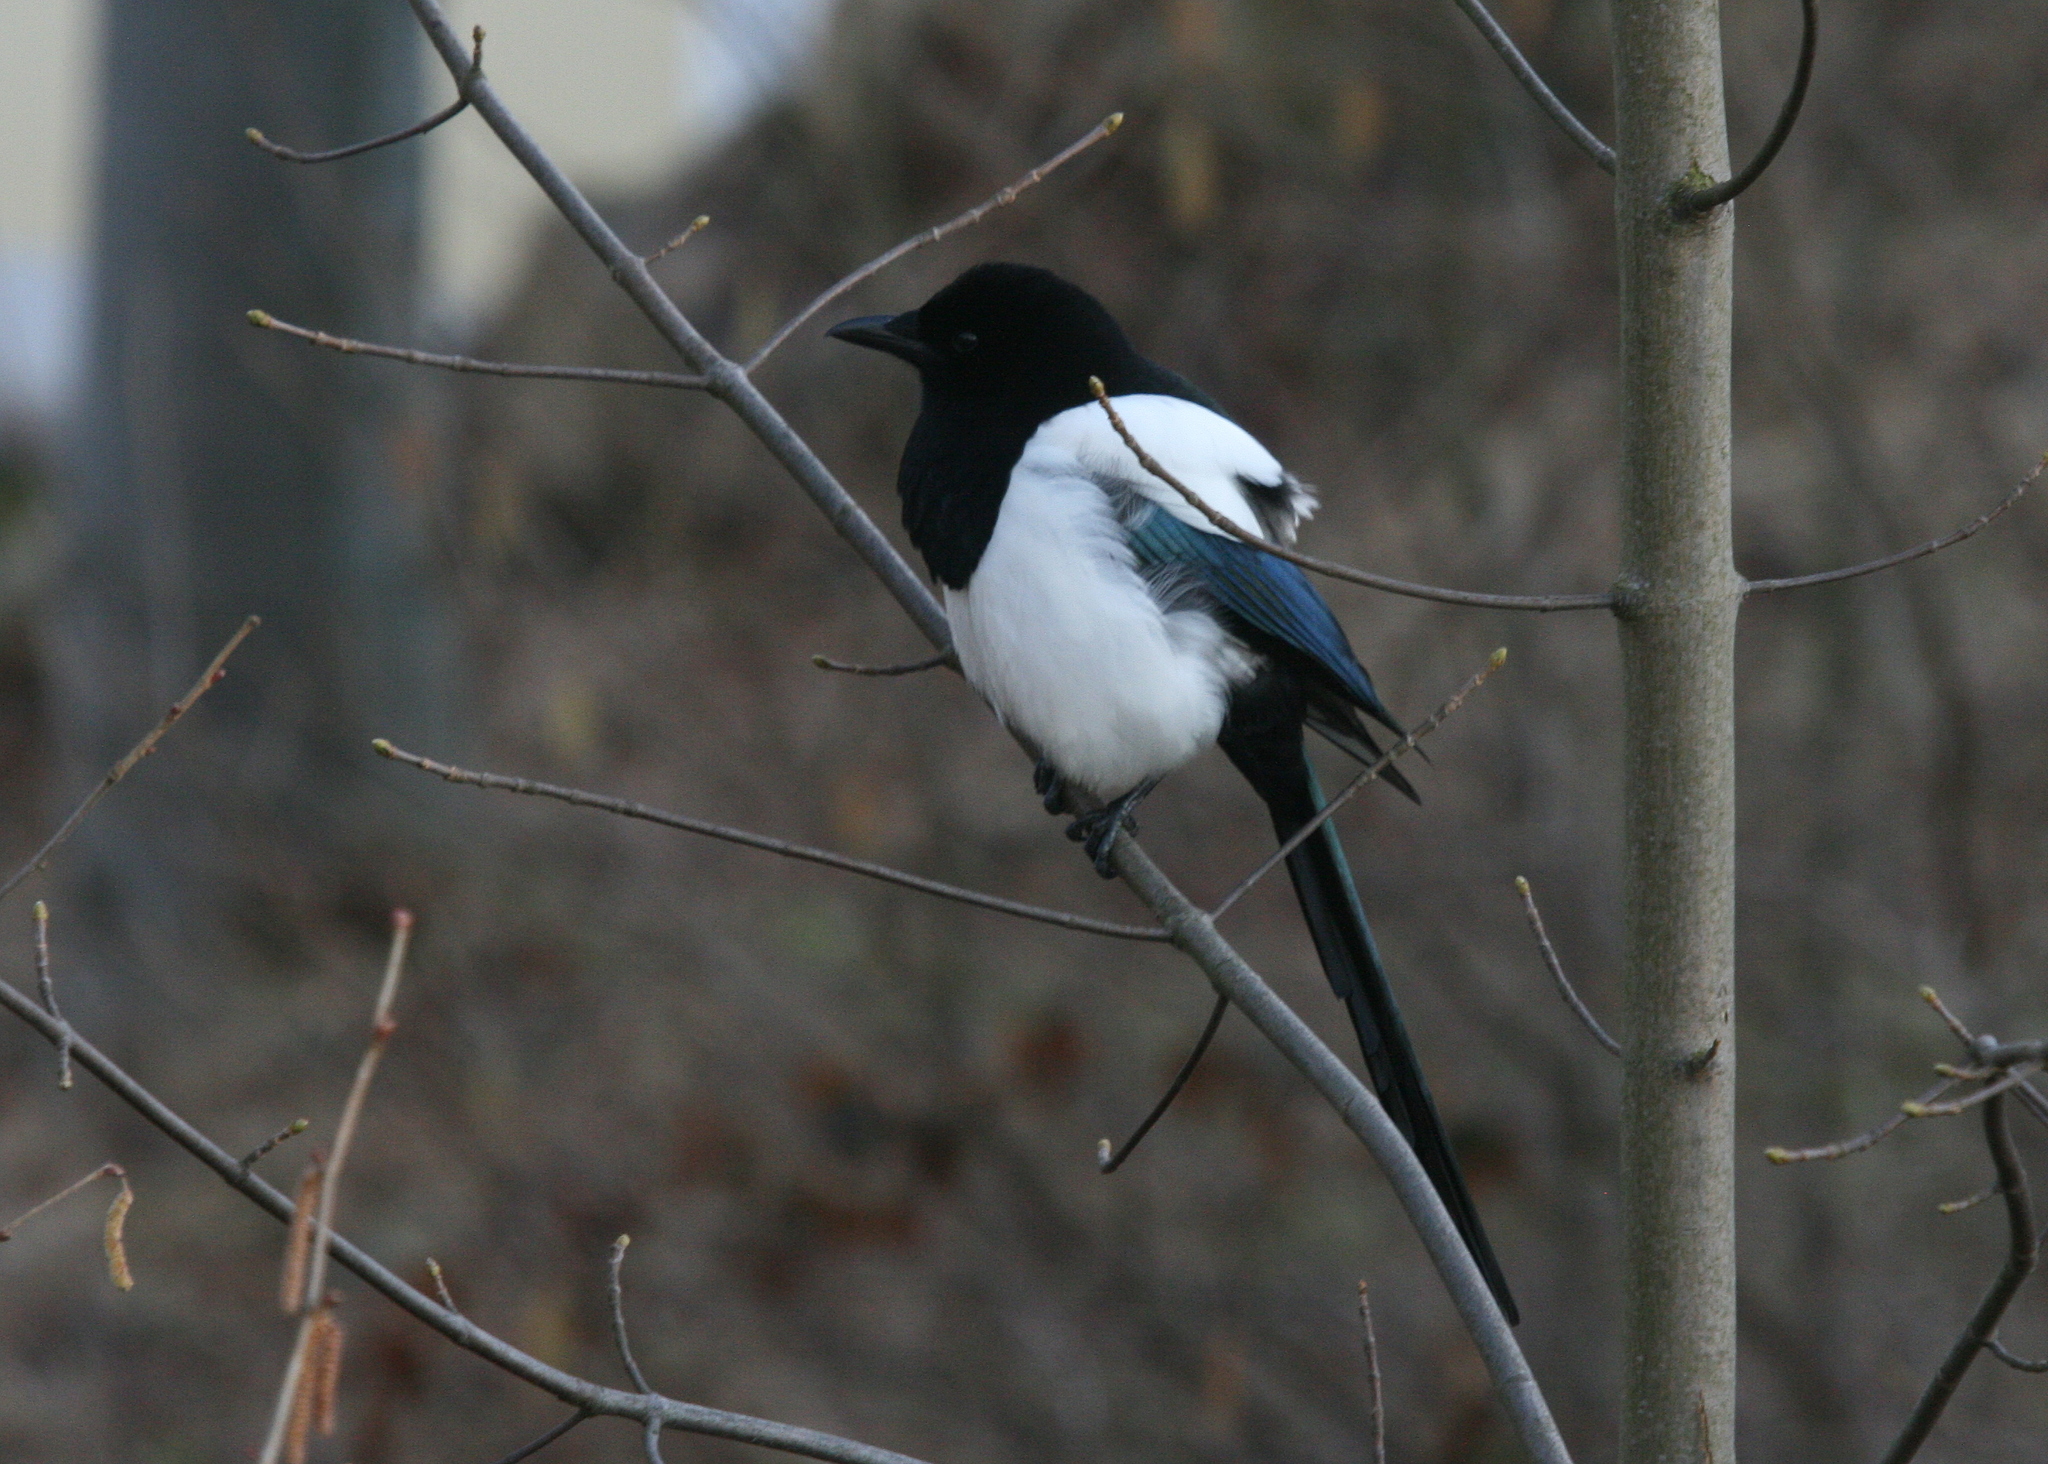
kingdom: Animalia
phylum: Chordata
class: Aves
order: Passeriformes
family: Corvidae
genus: Pica
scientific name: Pica pica
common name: Eurasian magpie
